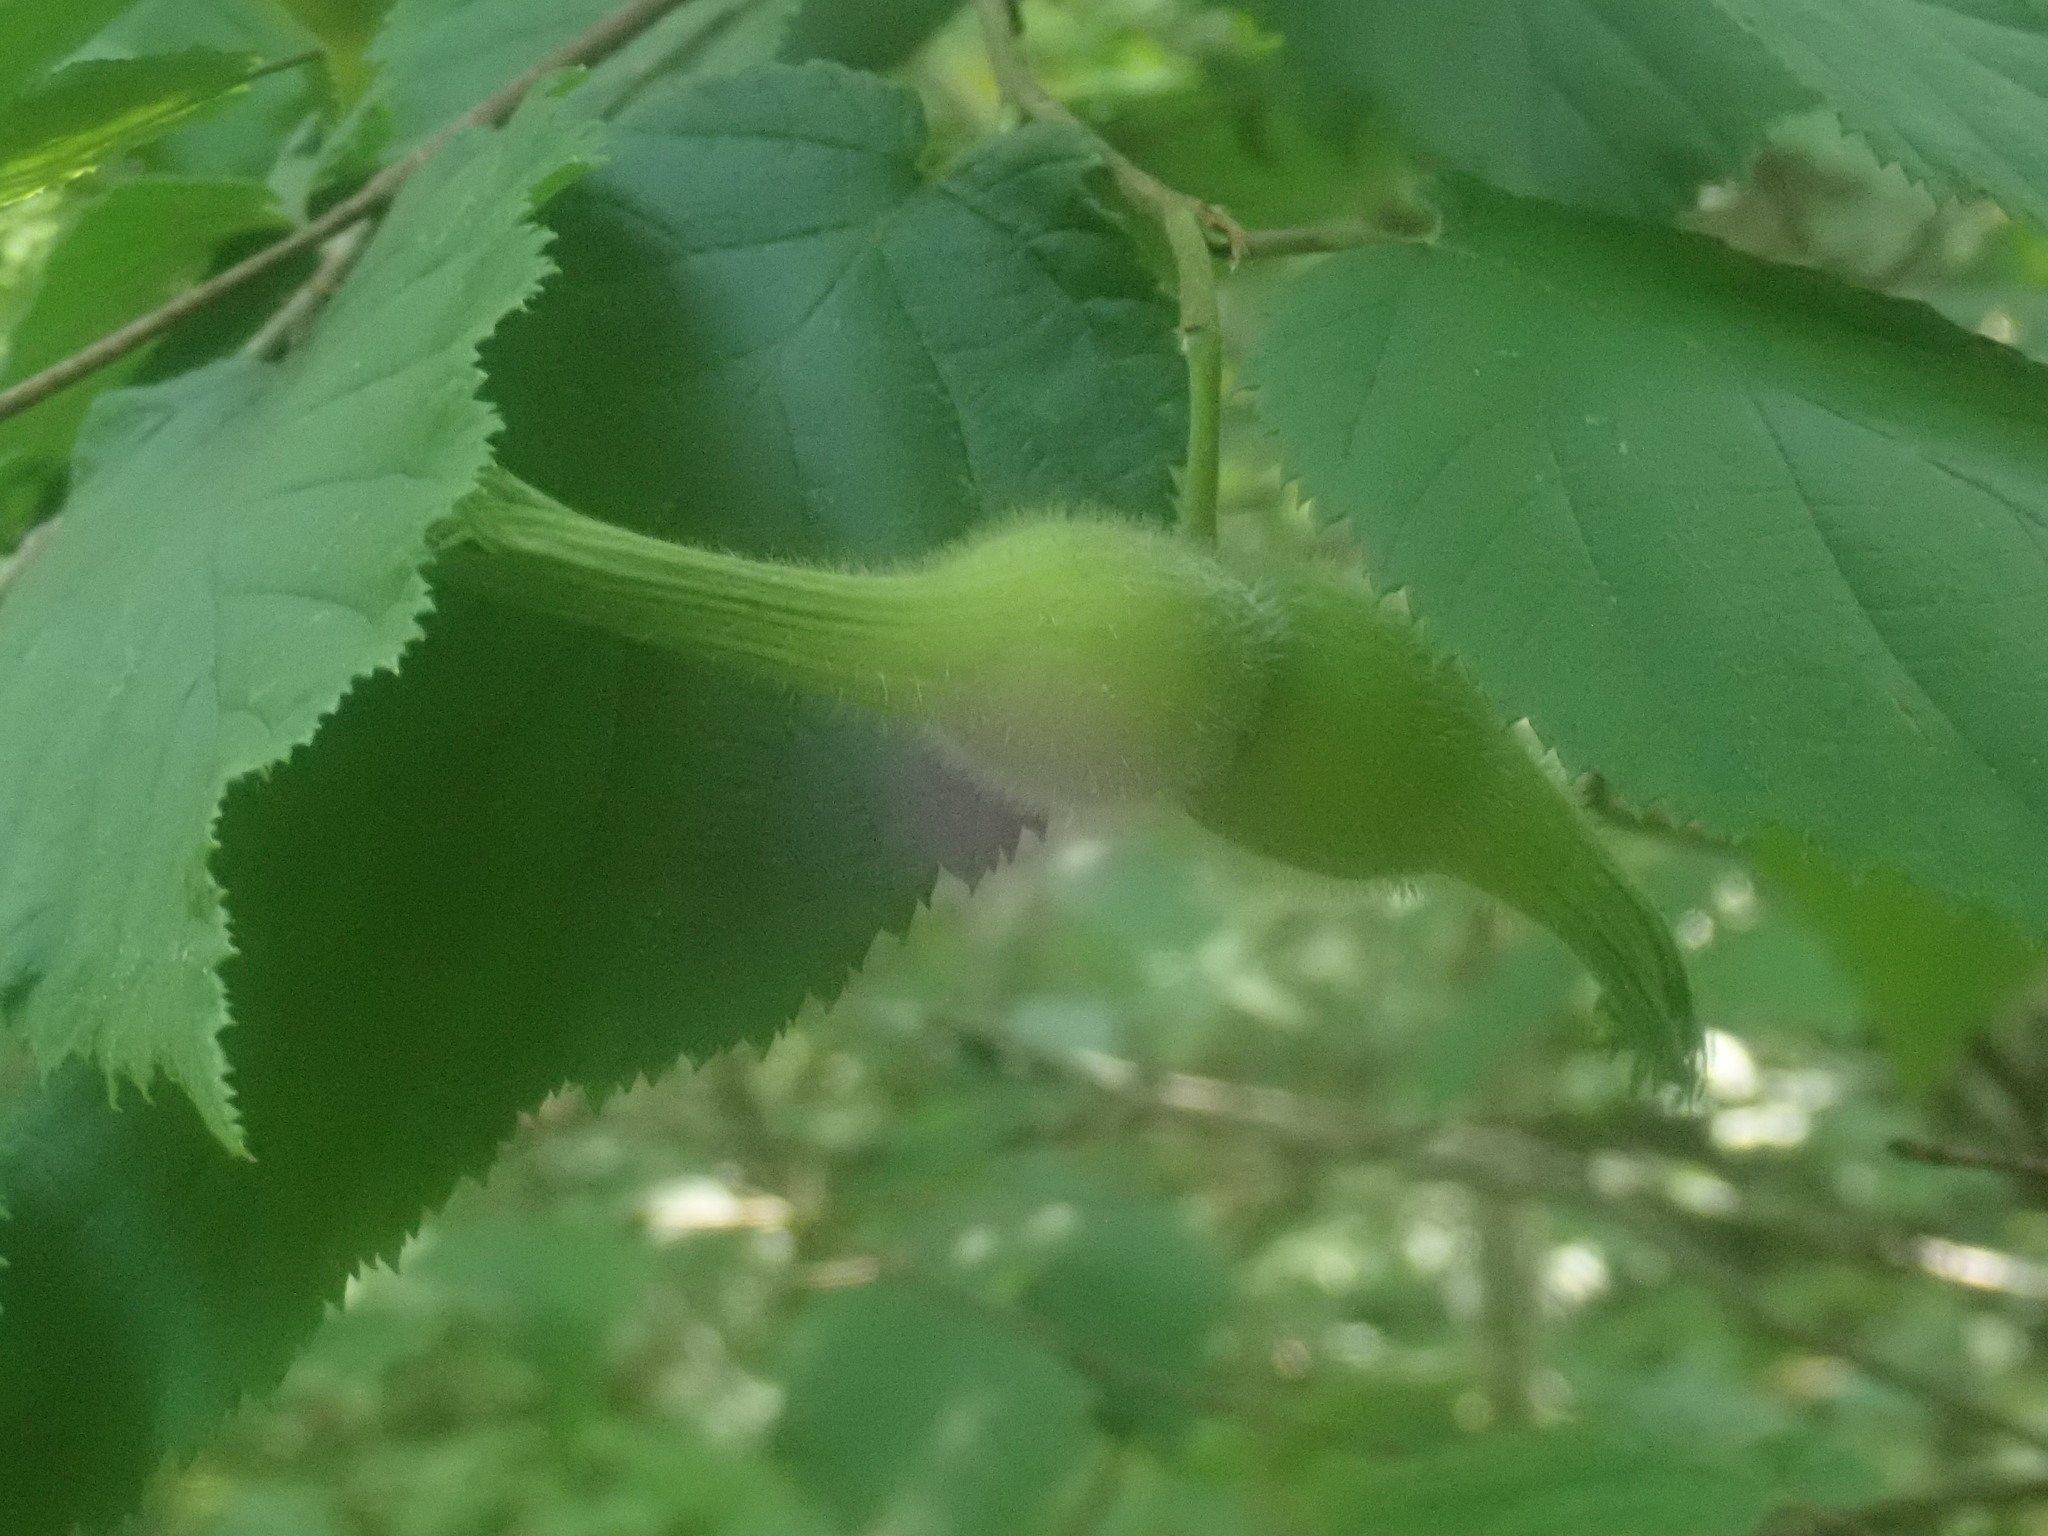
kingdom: Plantae
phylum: Tracheophyta
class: Magnoliopsida
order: Fagales
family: Betulaceae
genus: Corylus
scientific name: Corylus cornuta
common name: Beaked hazel
